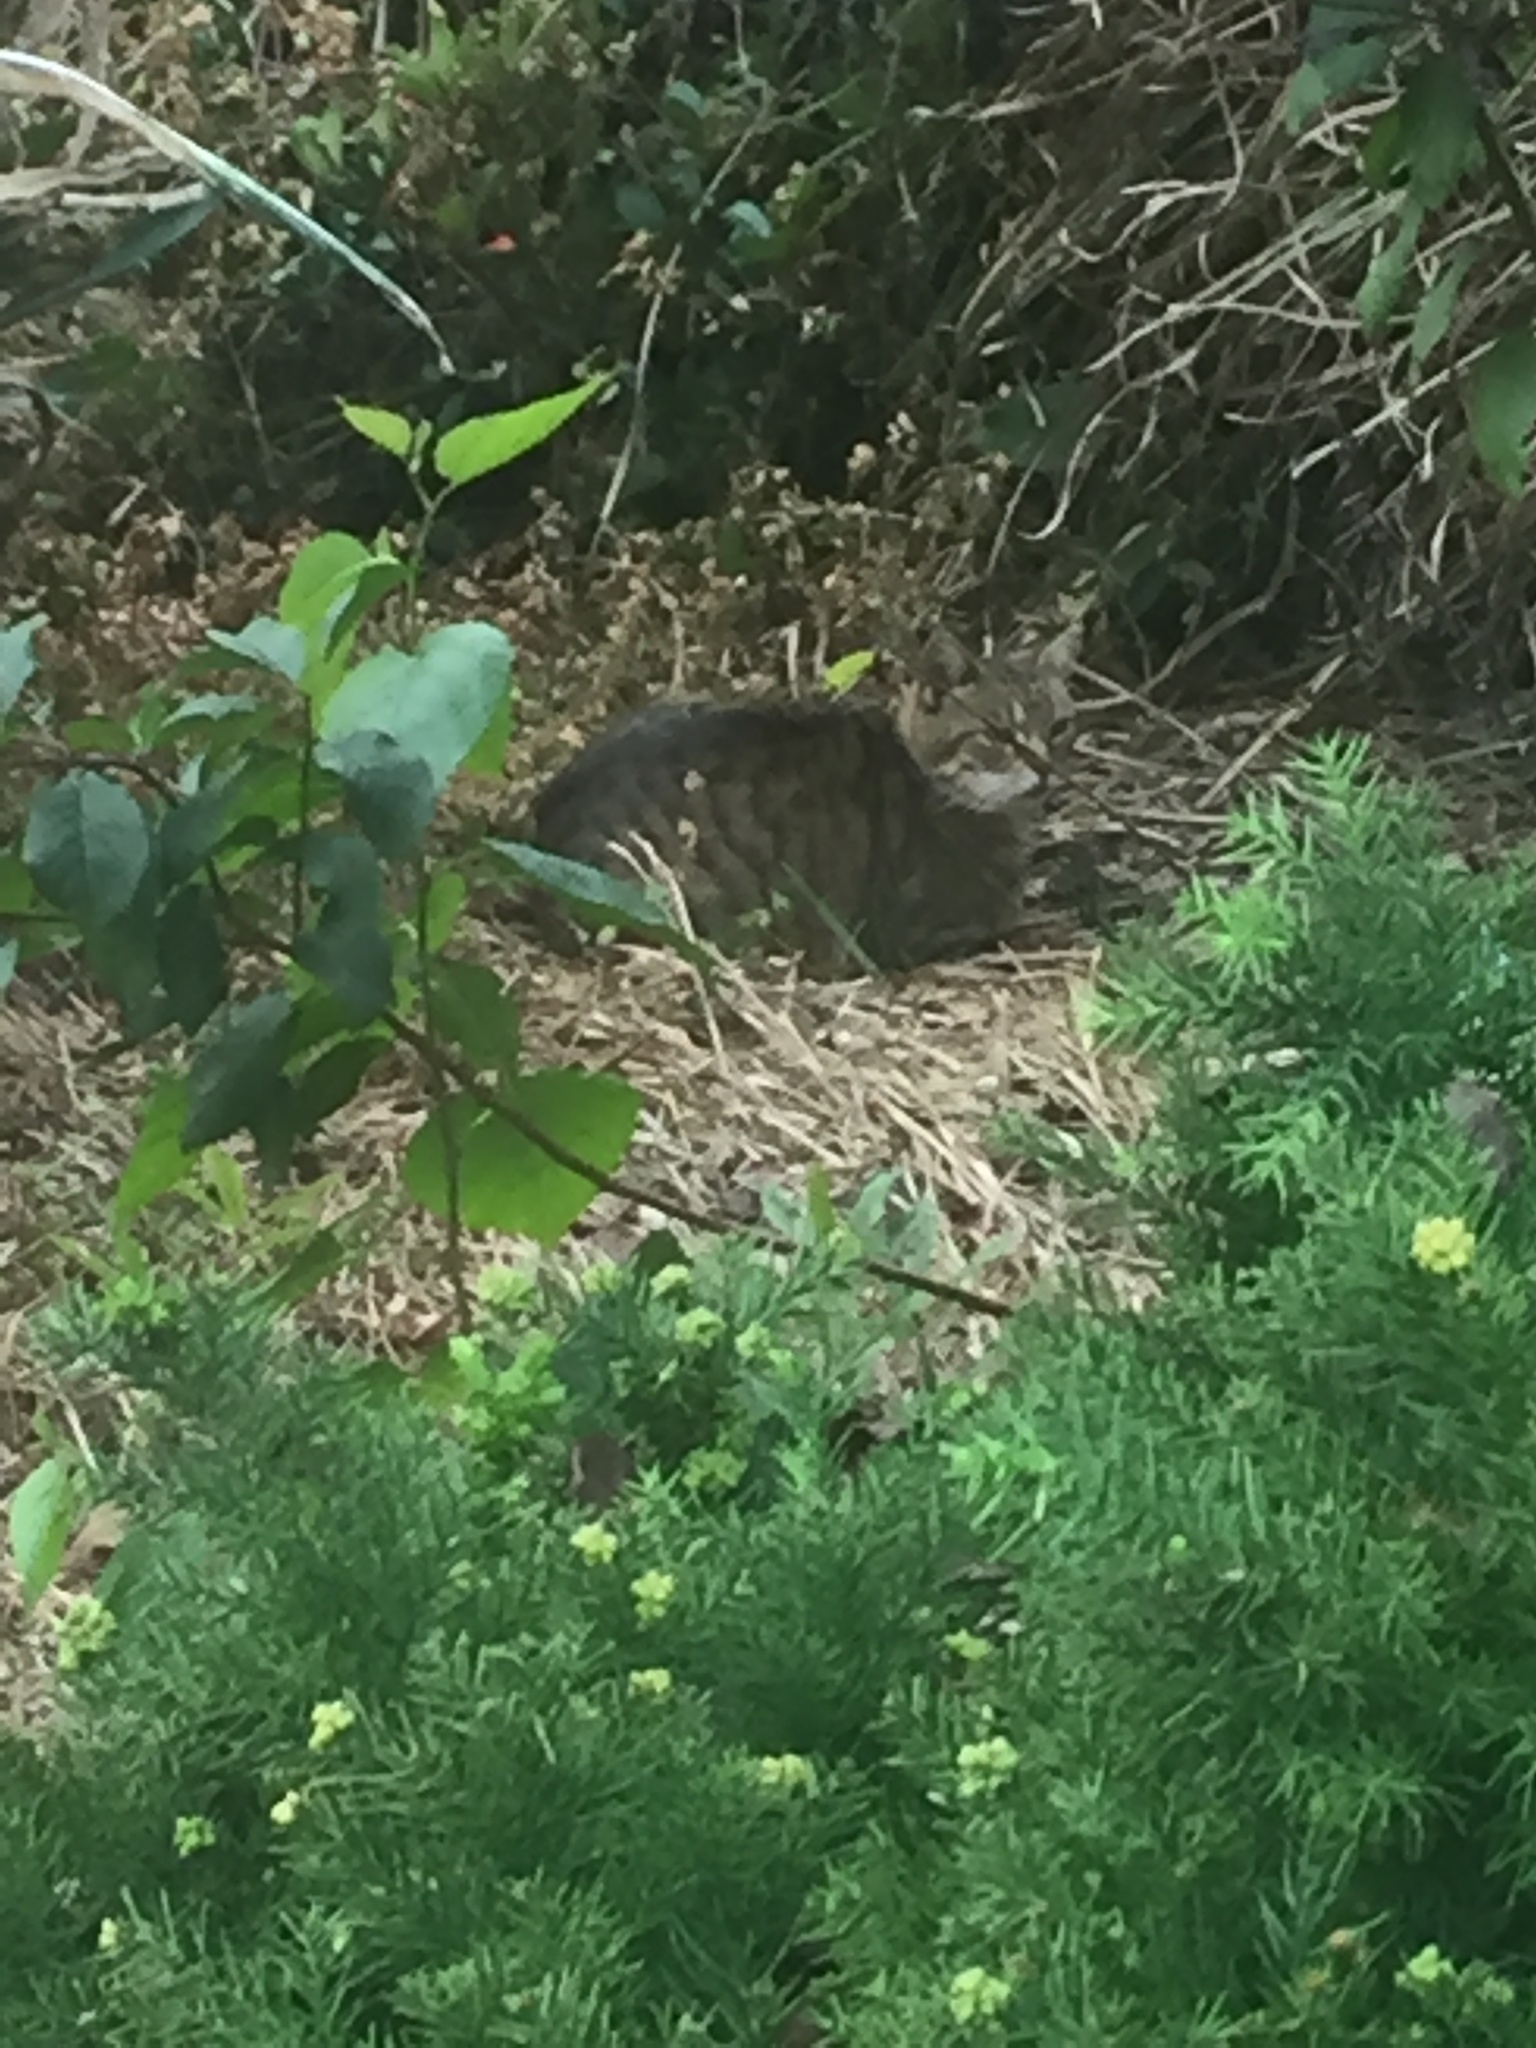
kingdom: Animalia
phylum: Chordata
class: Mammalia
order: Carnivora
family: Felidae
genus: Felis
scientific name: Felis catus
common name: Domestic cat
